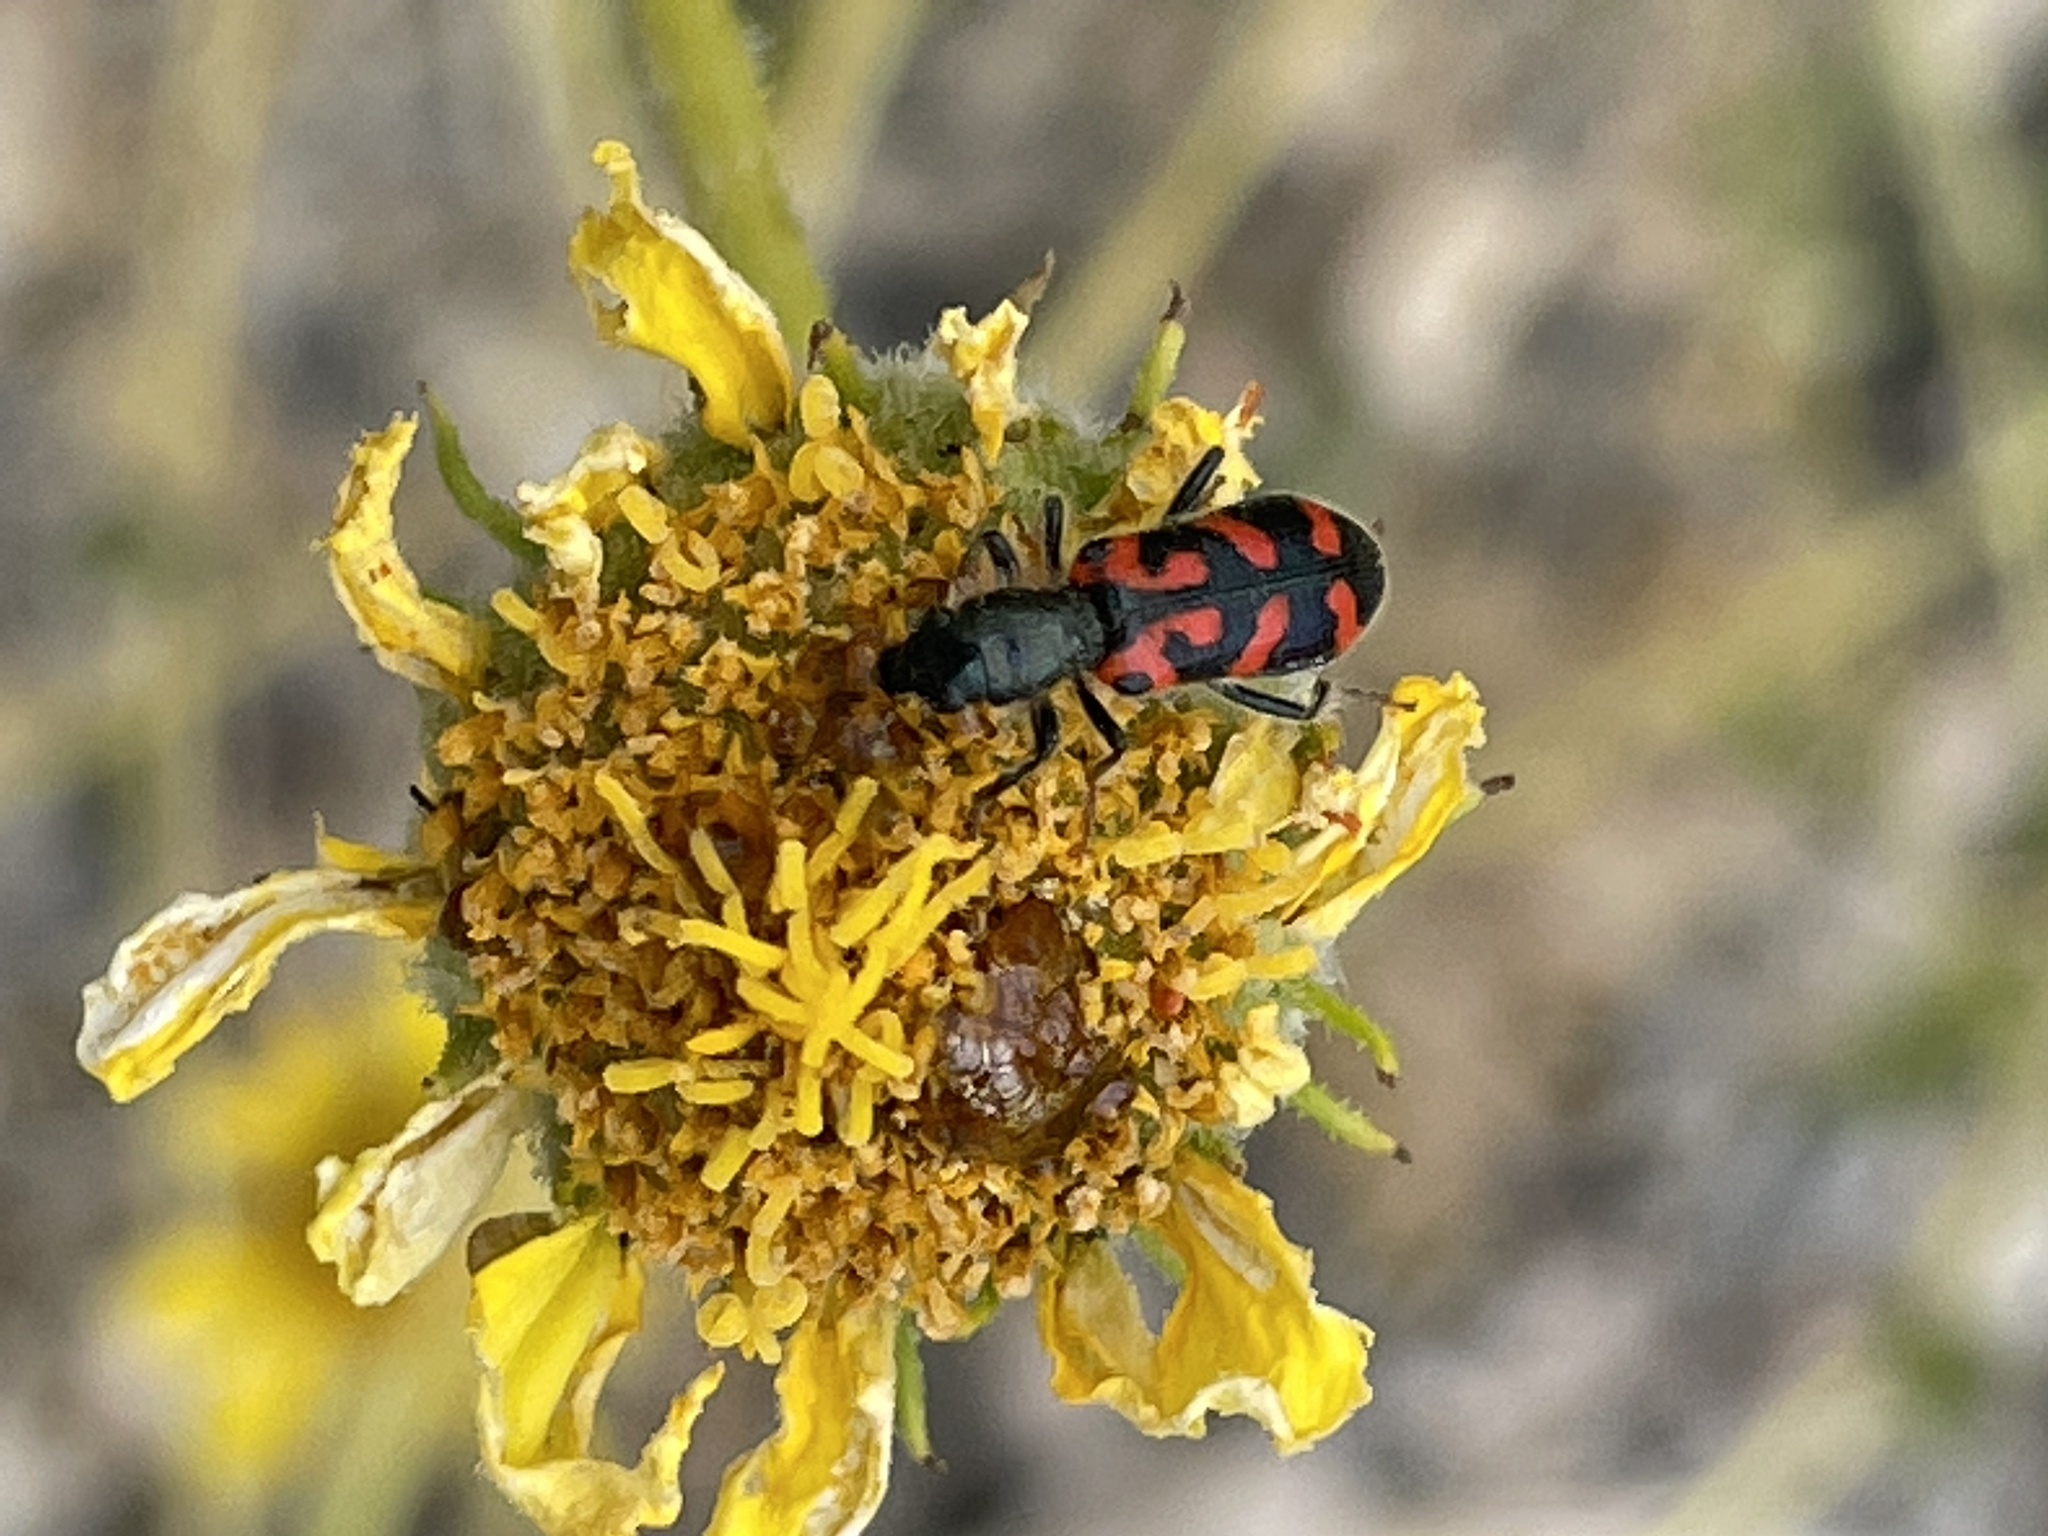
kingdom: Animalia
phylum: Arthropoda
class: Insecta
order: Coleoptera
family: Cleridae
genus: Trichodes
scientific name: Trichodes ornatus
